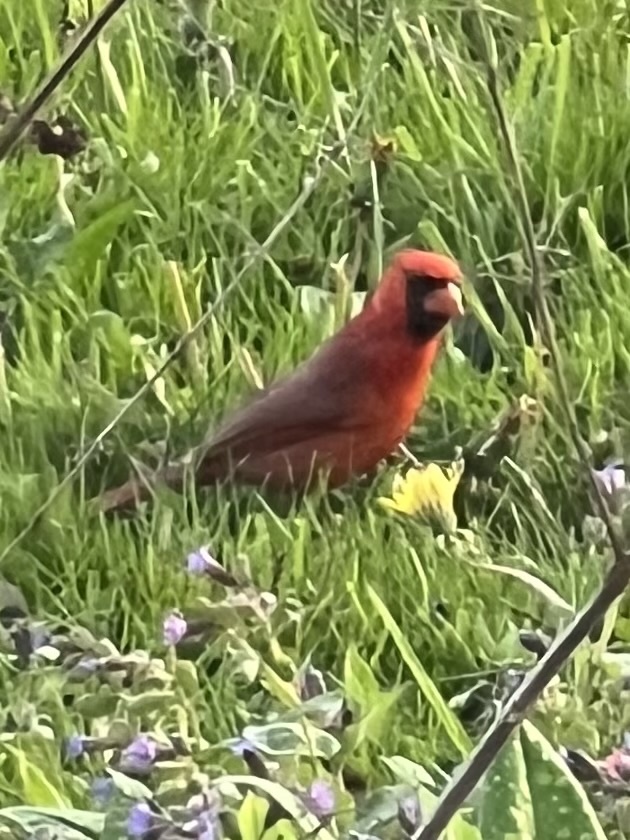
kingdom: Animalia
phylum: Chordata
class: Aves
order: Passeriformes
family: Cardinalidae
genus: Cardinalis
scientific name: Cardinalis cardinalis
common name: Northern cardinal
